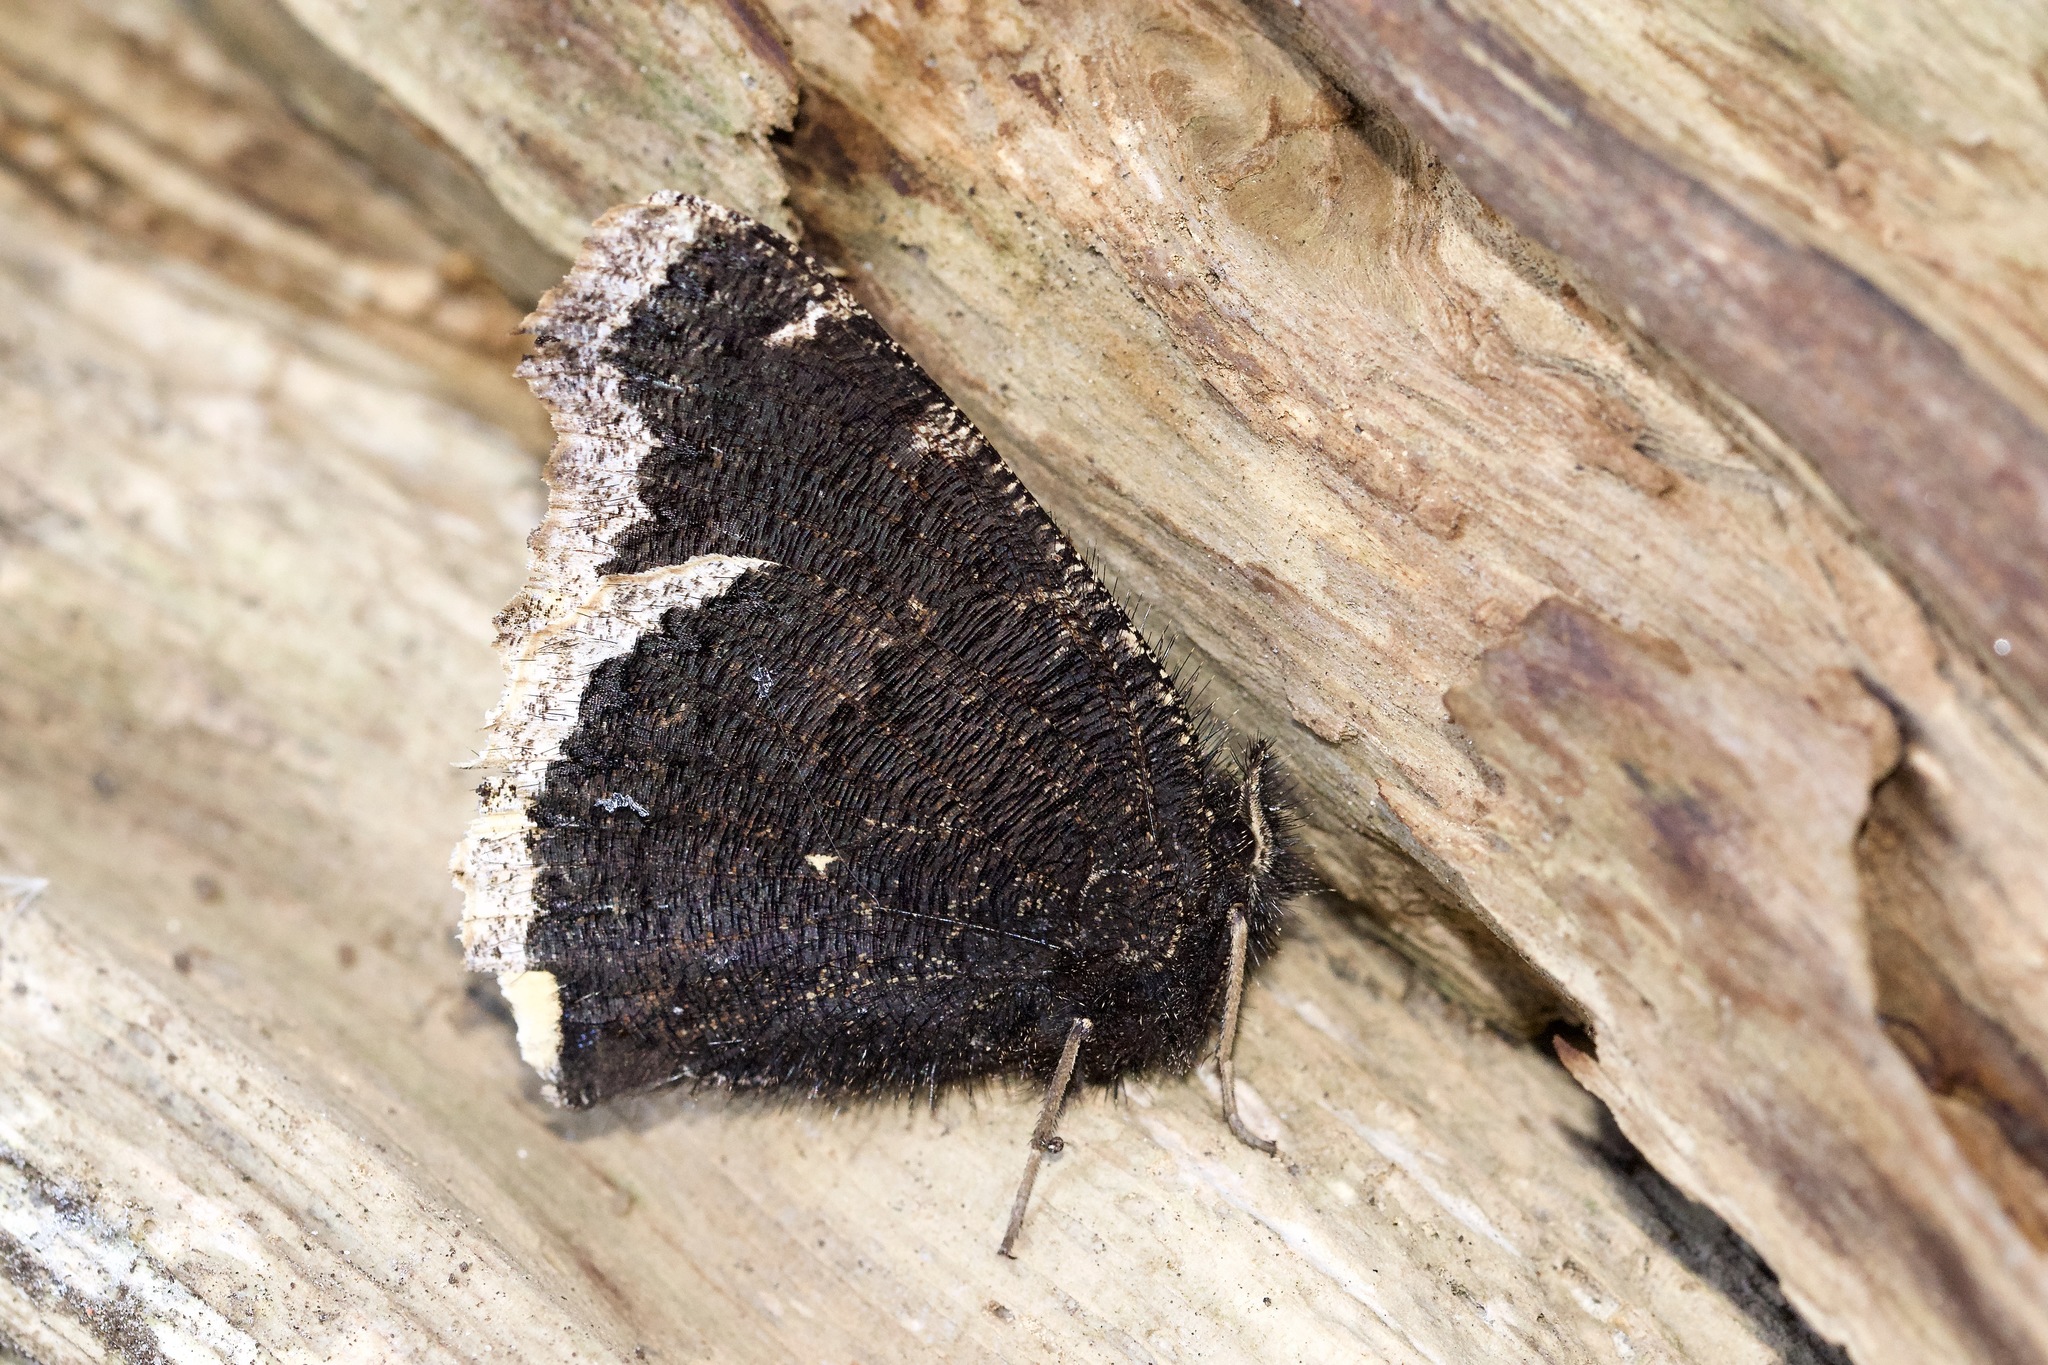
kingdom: Animalia
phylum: Arthropoda
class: Insecta
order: Lepidoptera
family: Nymphalidae
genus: Nymphalis
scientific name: Nymphalis antiopa
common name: Camberwell beauty
